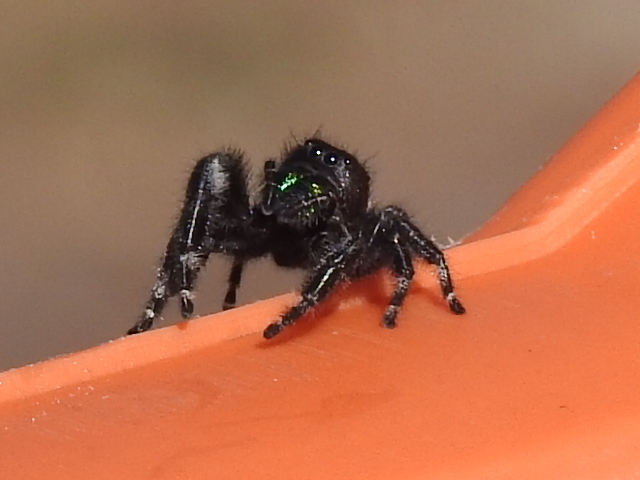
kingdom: Animalia
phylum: Arthropoda
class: Arachnida
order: Araneae
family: Salticidae
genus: Phidippus
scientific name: Phidippus audax
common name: Bold jumper
